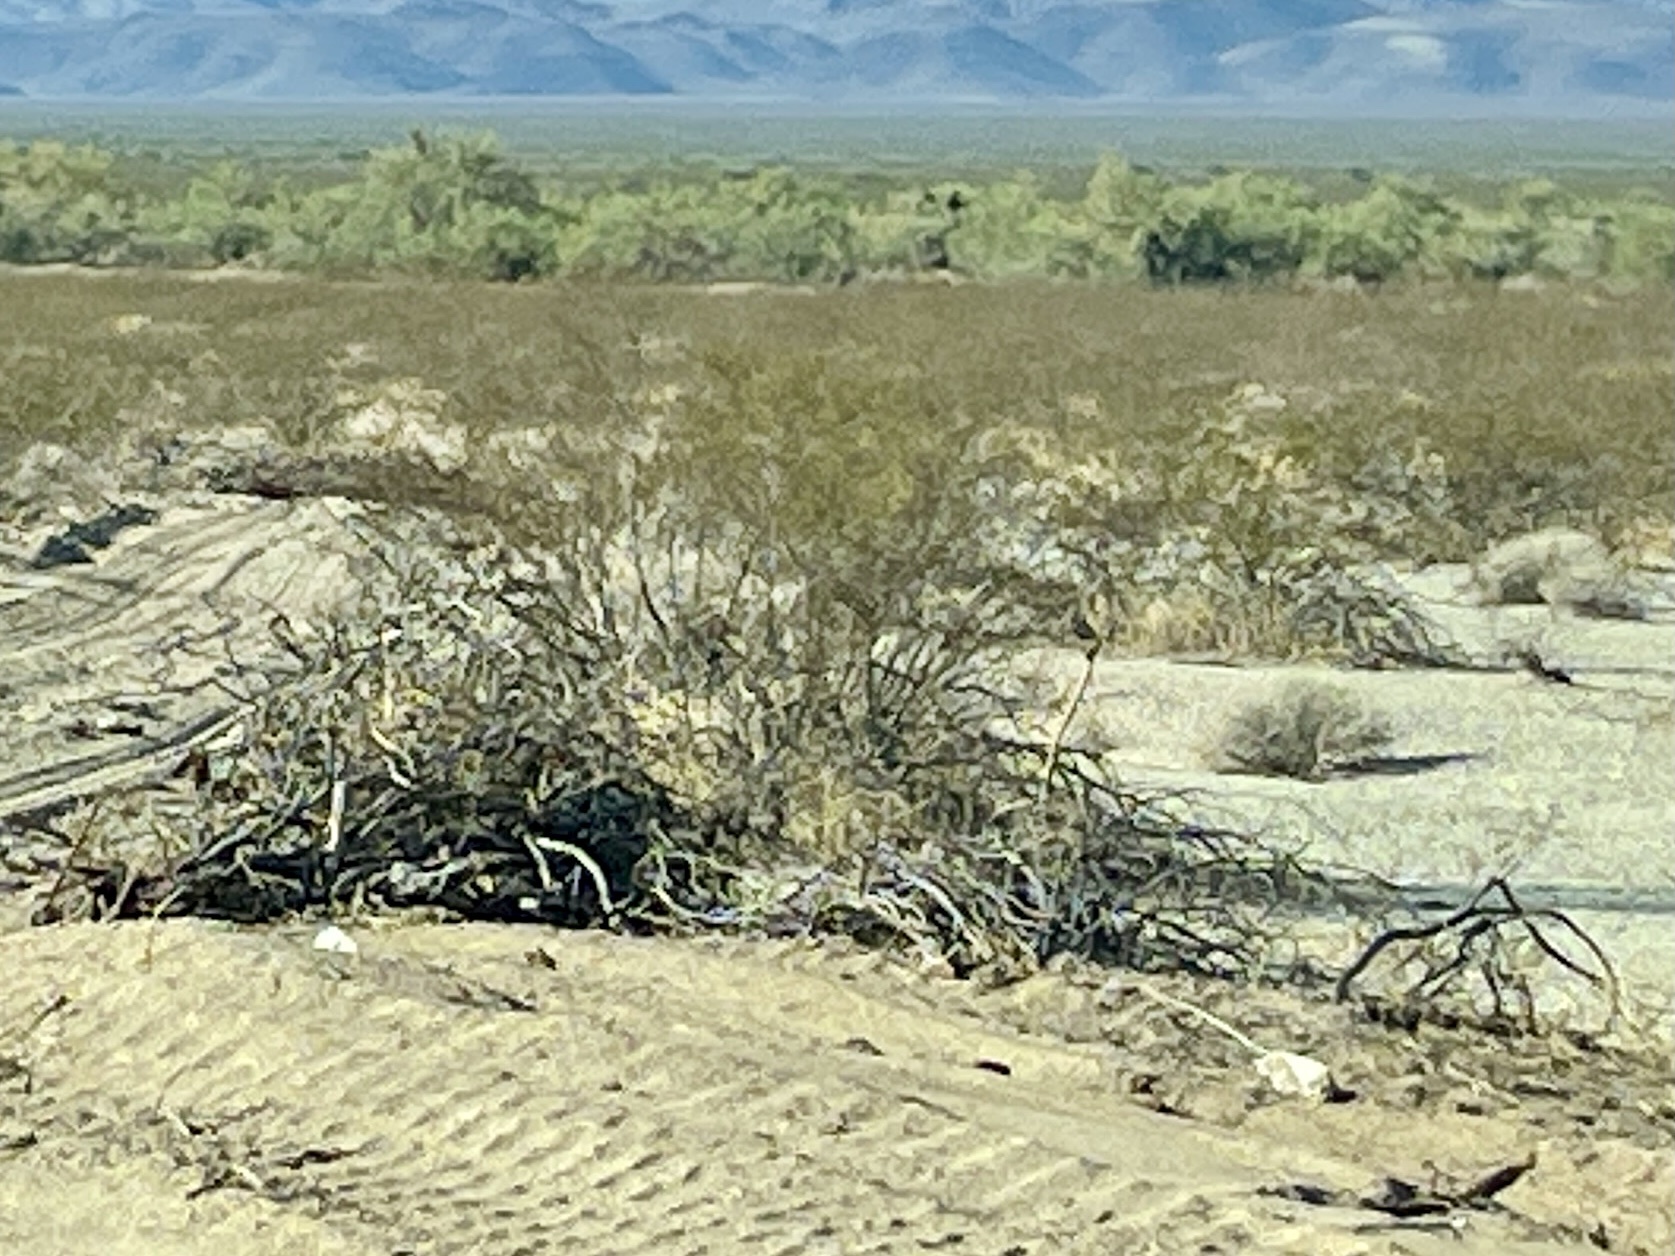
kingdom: Plantae
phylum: Tracheophyta
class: Magnoliopsida
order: Zygophyllales
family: Zygophyllaceae
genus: Larrea
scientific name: Larrea tridentata
